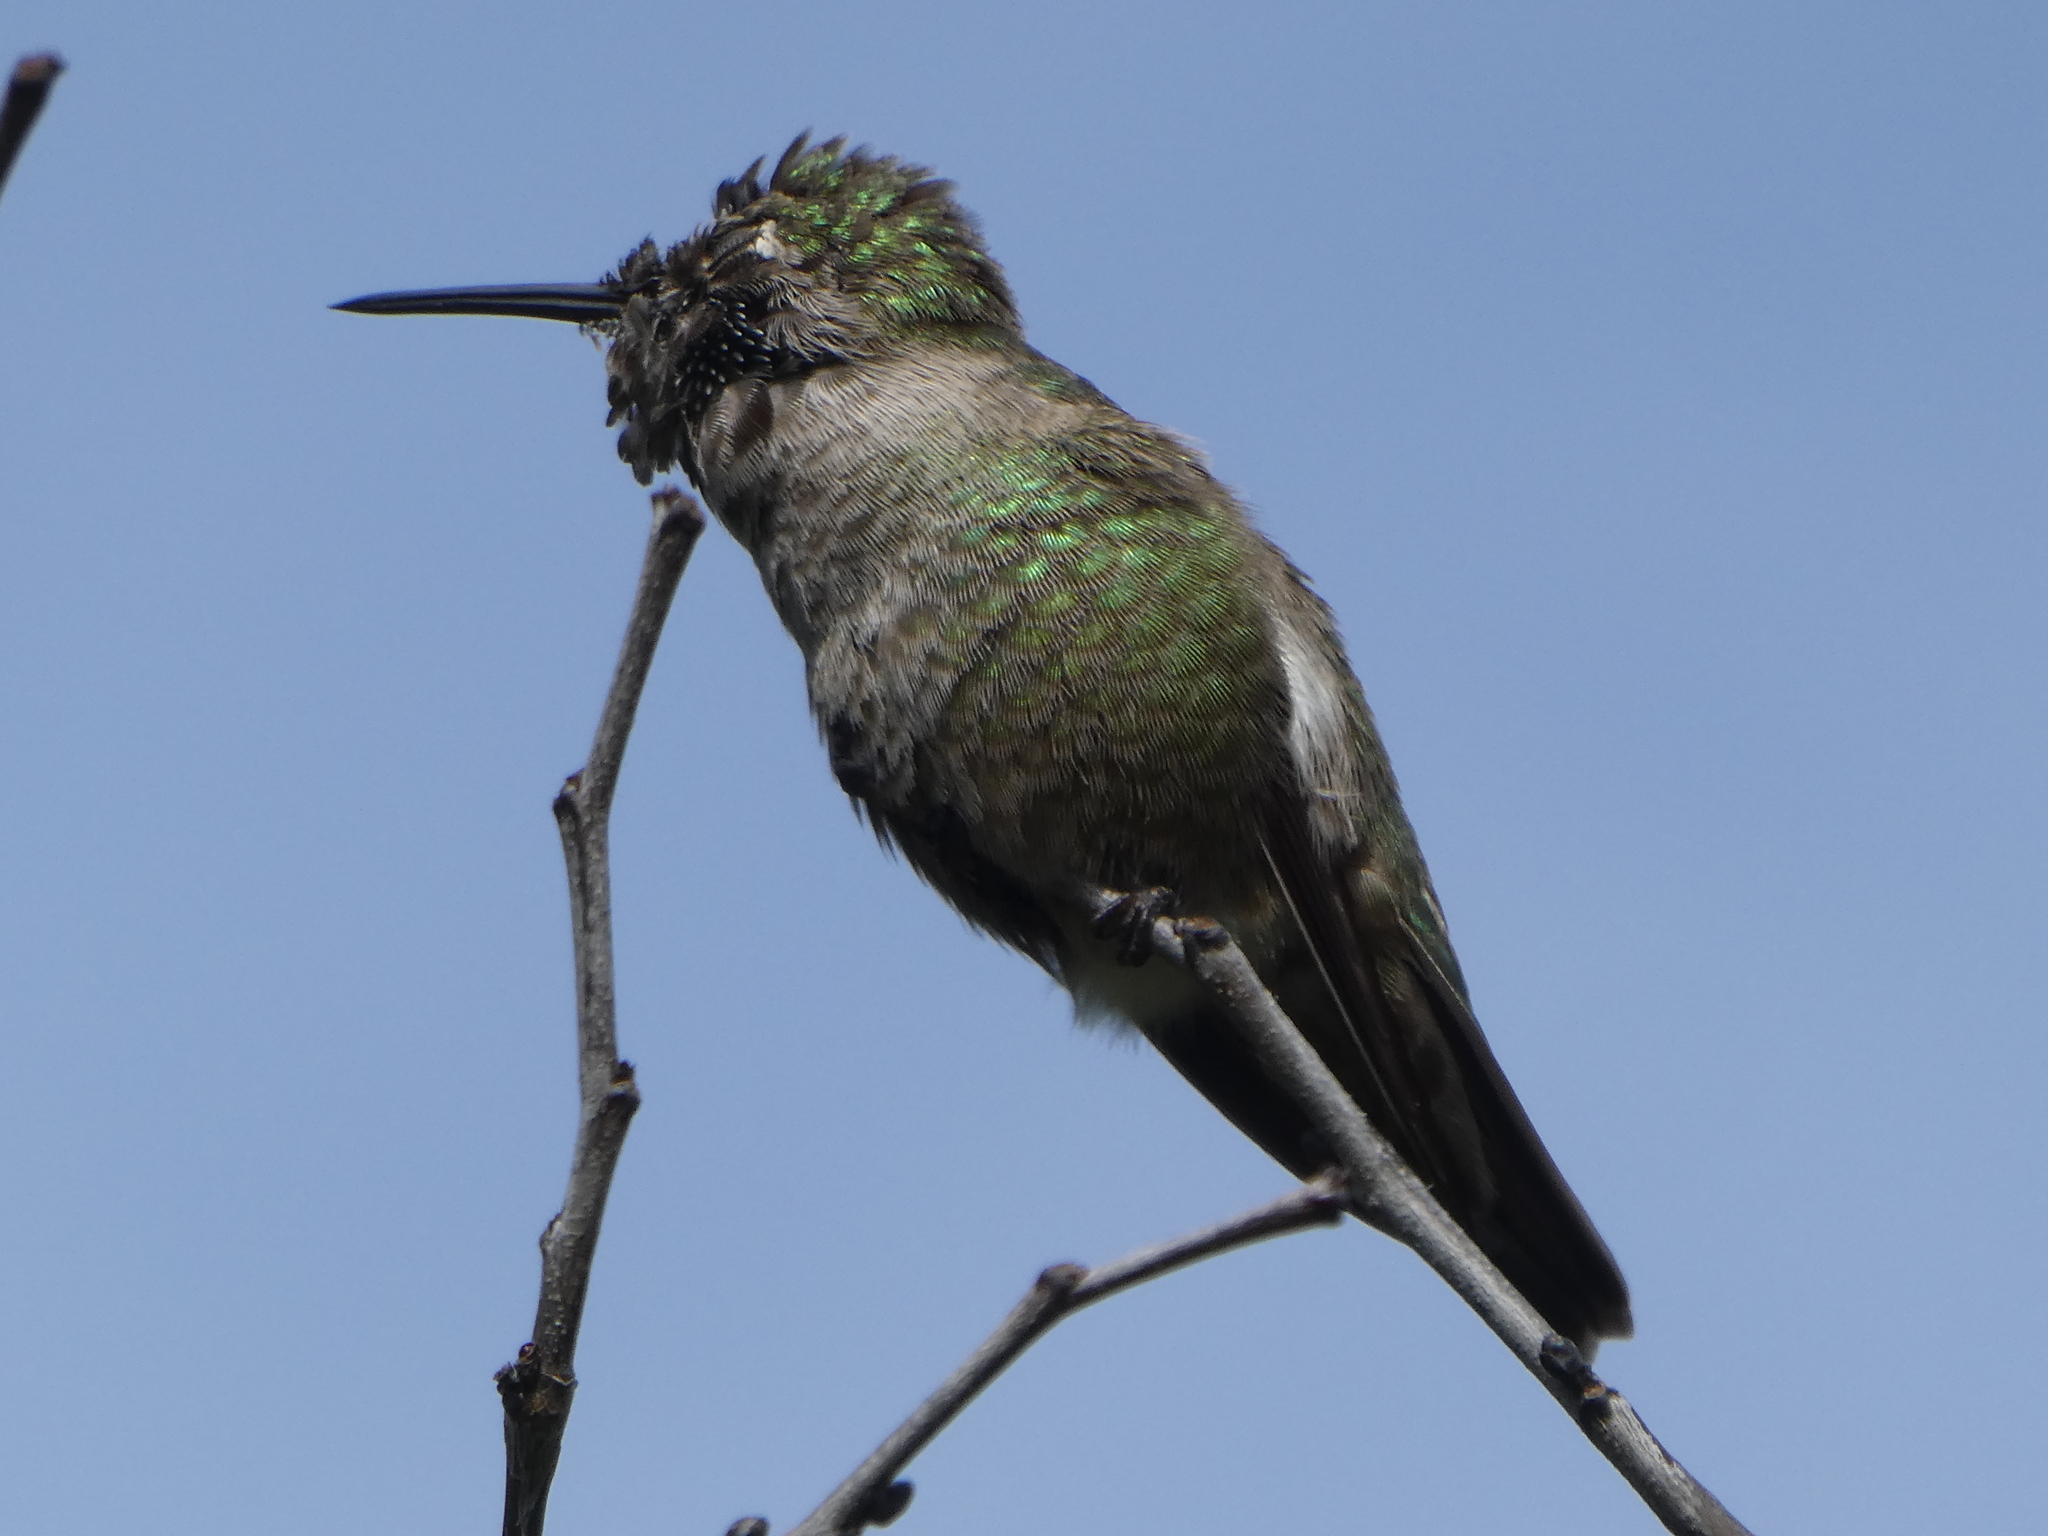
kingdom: Animalia
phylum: Chordata
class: Aves
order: Apodiformes
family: Trochilidae
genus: Calypte
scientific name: Calypte anna
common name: Anna's hummingbird
